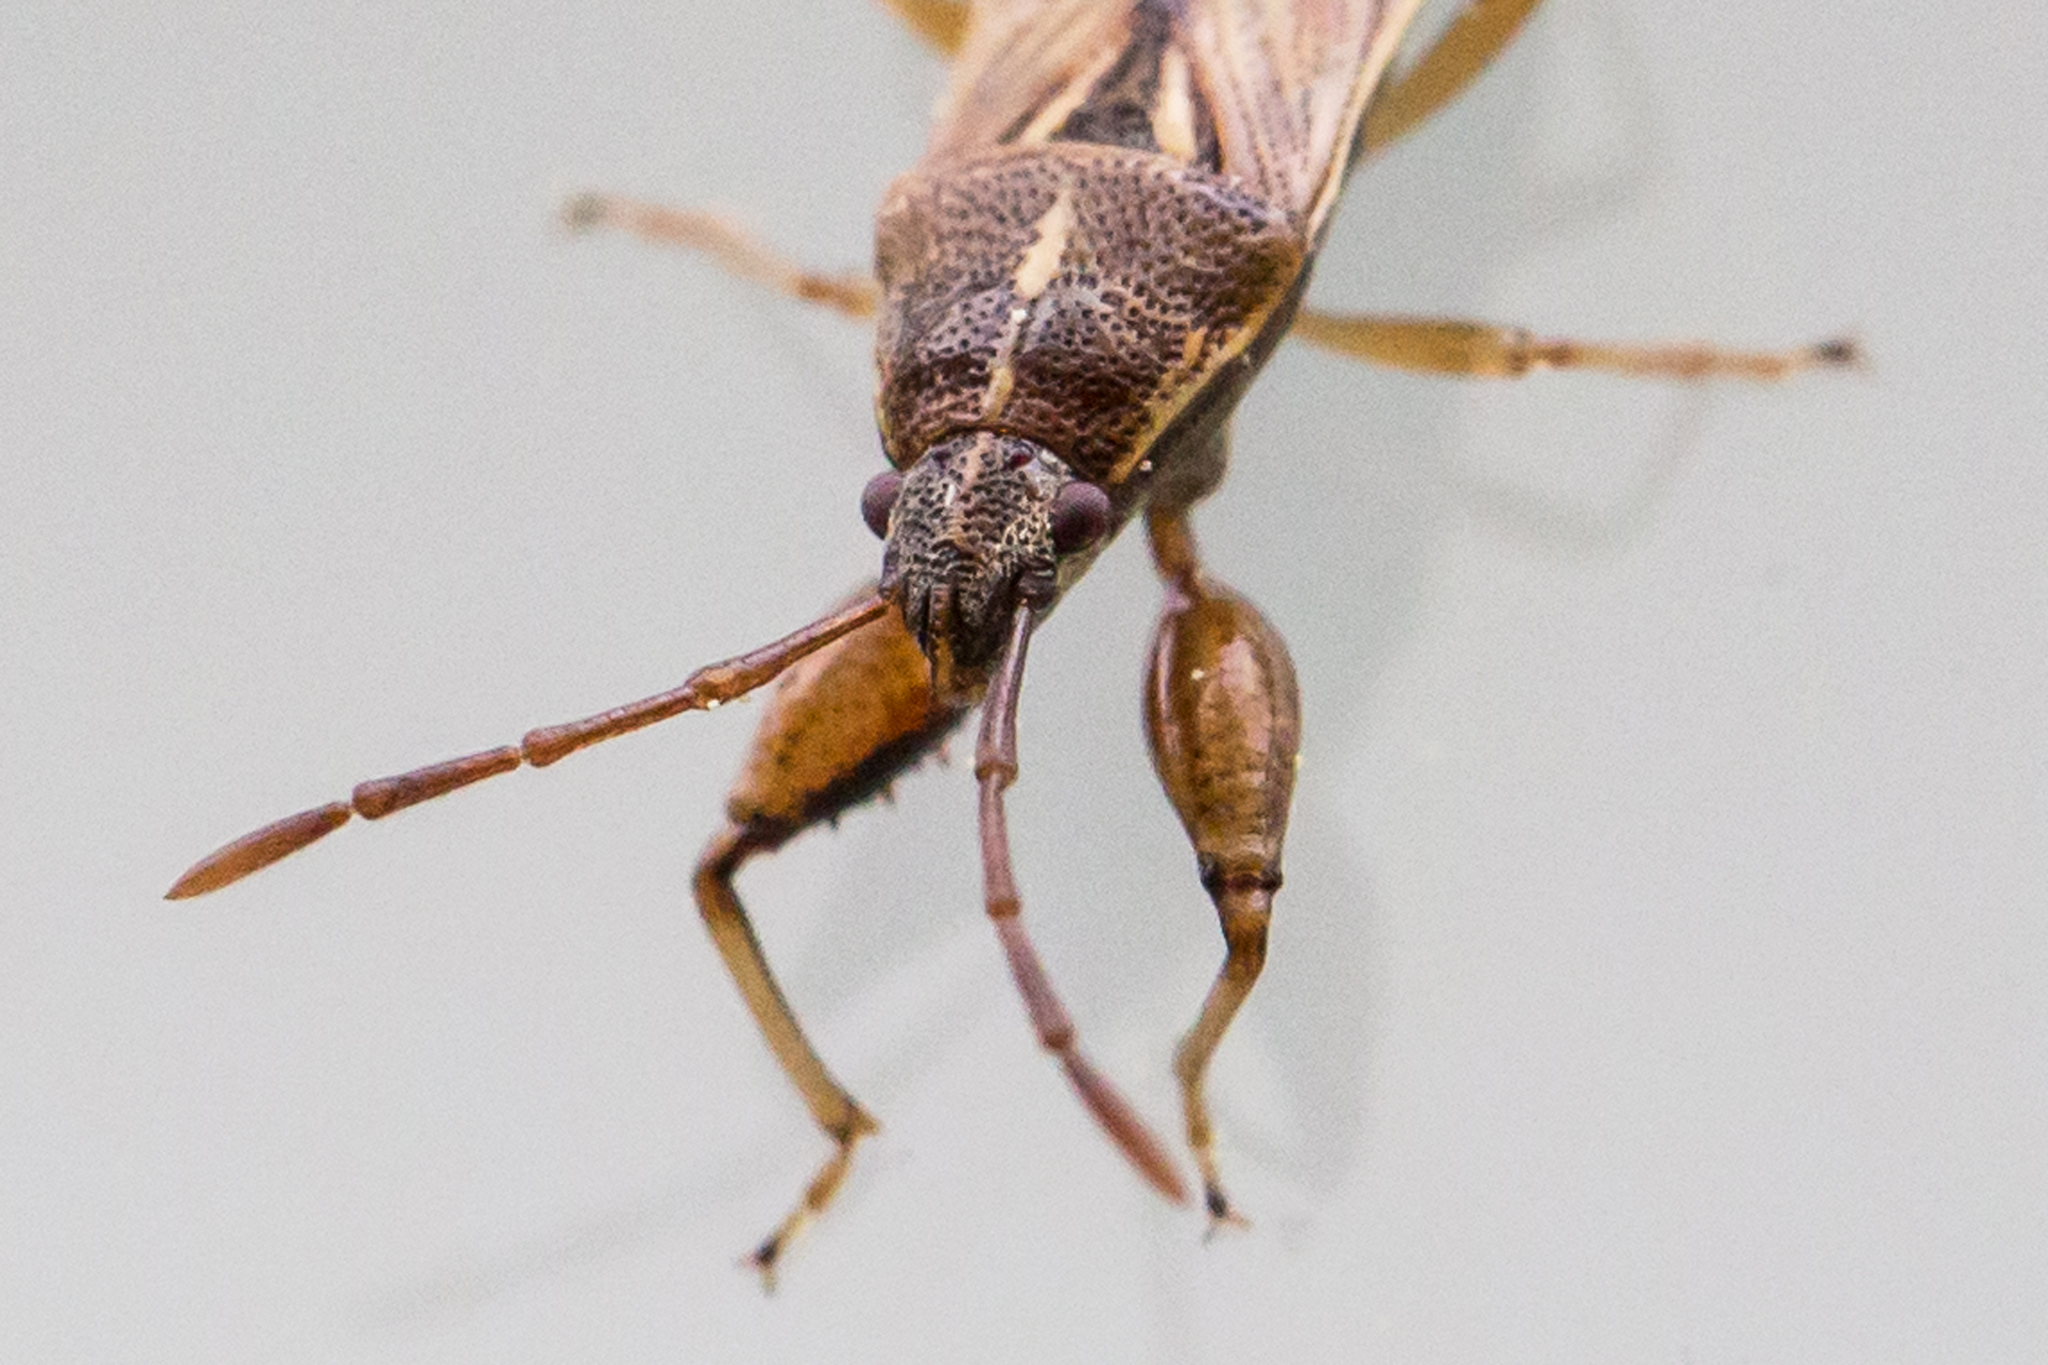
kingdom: Animalia
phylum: Arthropoda
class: Insecta
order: Hemiptera
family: Pachygronthidae
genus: Oedancala
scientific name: Oedancala dorsalis
